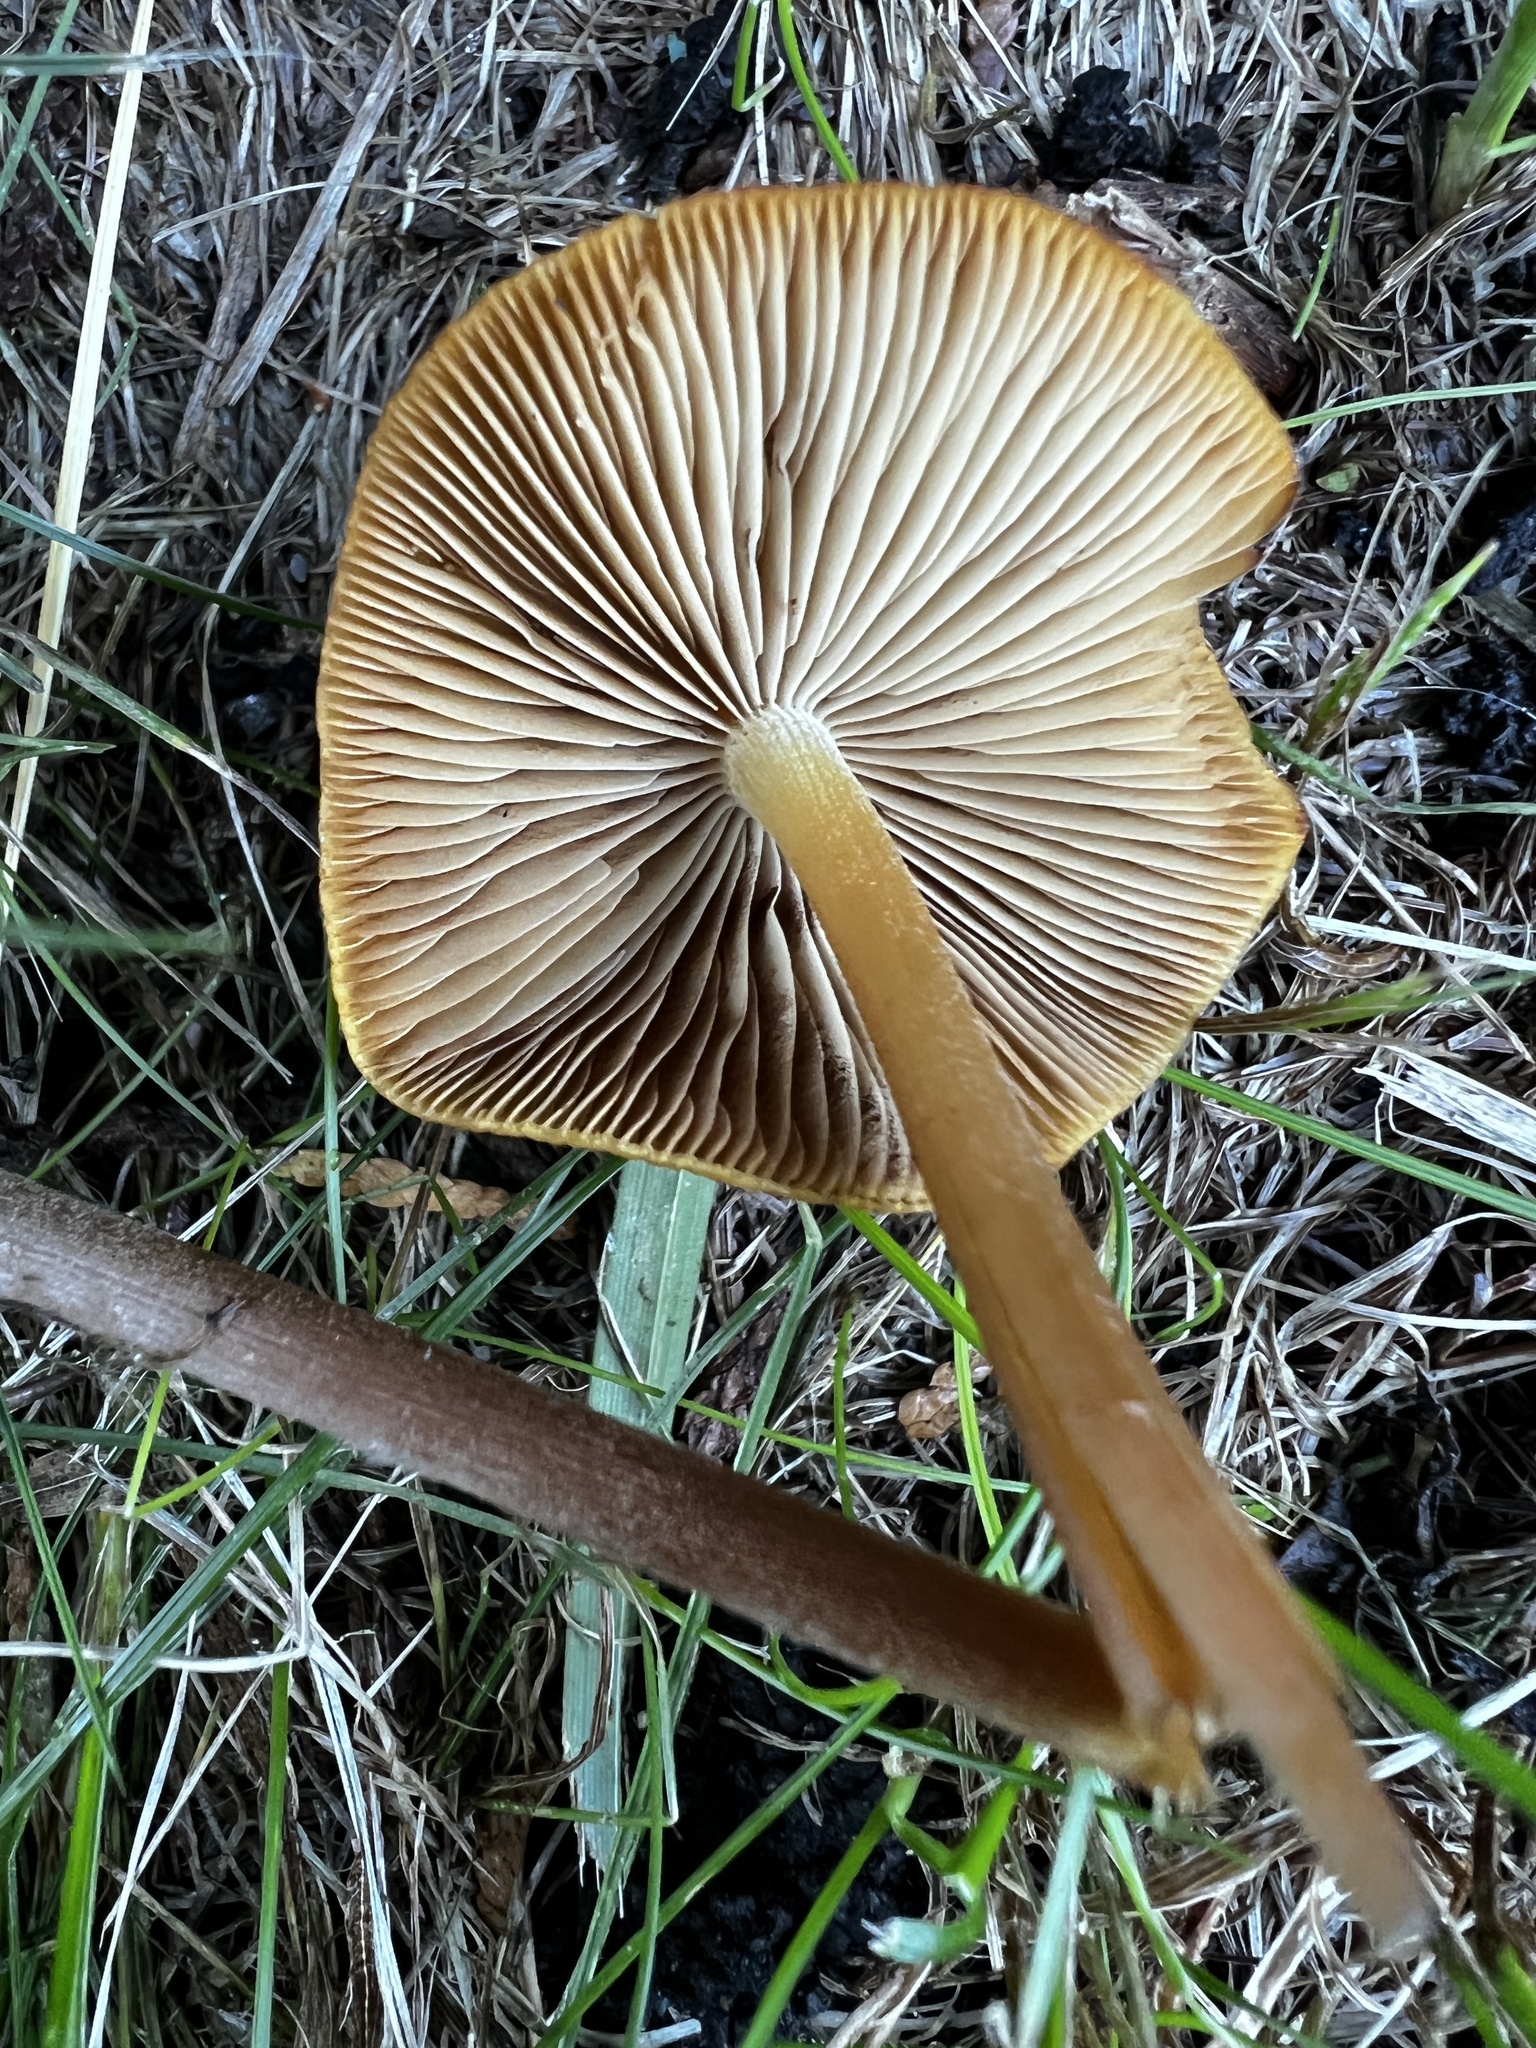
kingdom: Fungi
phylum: Basidiomycota
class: Agaricomycetes
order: Agaricales
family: Bolbitiaceae
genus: Bolbitius
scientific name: Bolbitius titubans
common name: Yellow fieldcap
